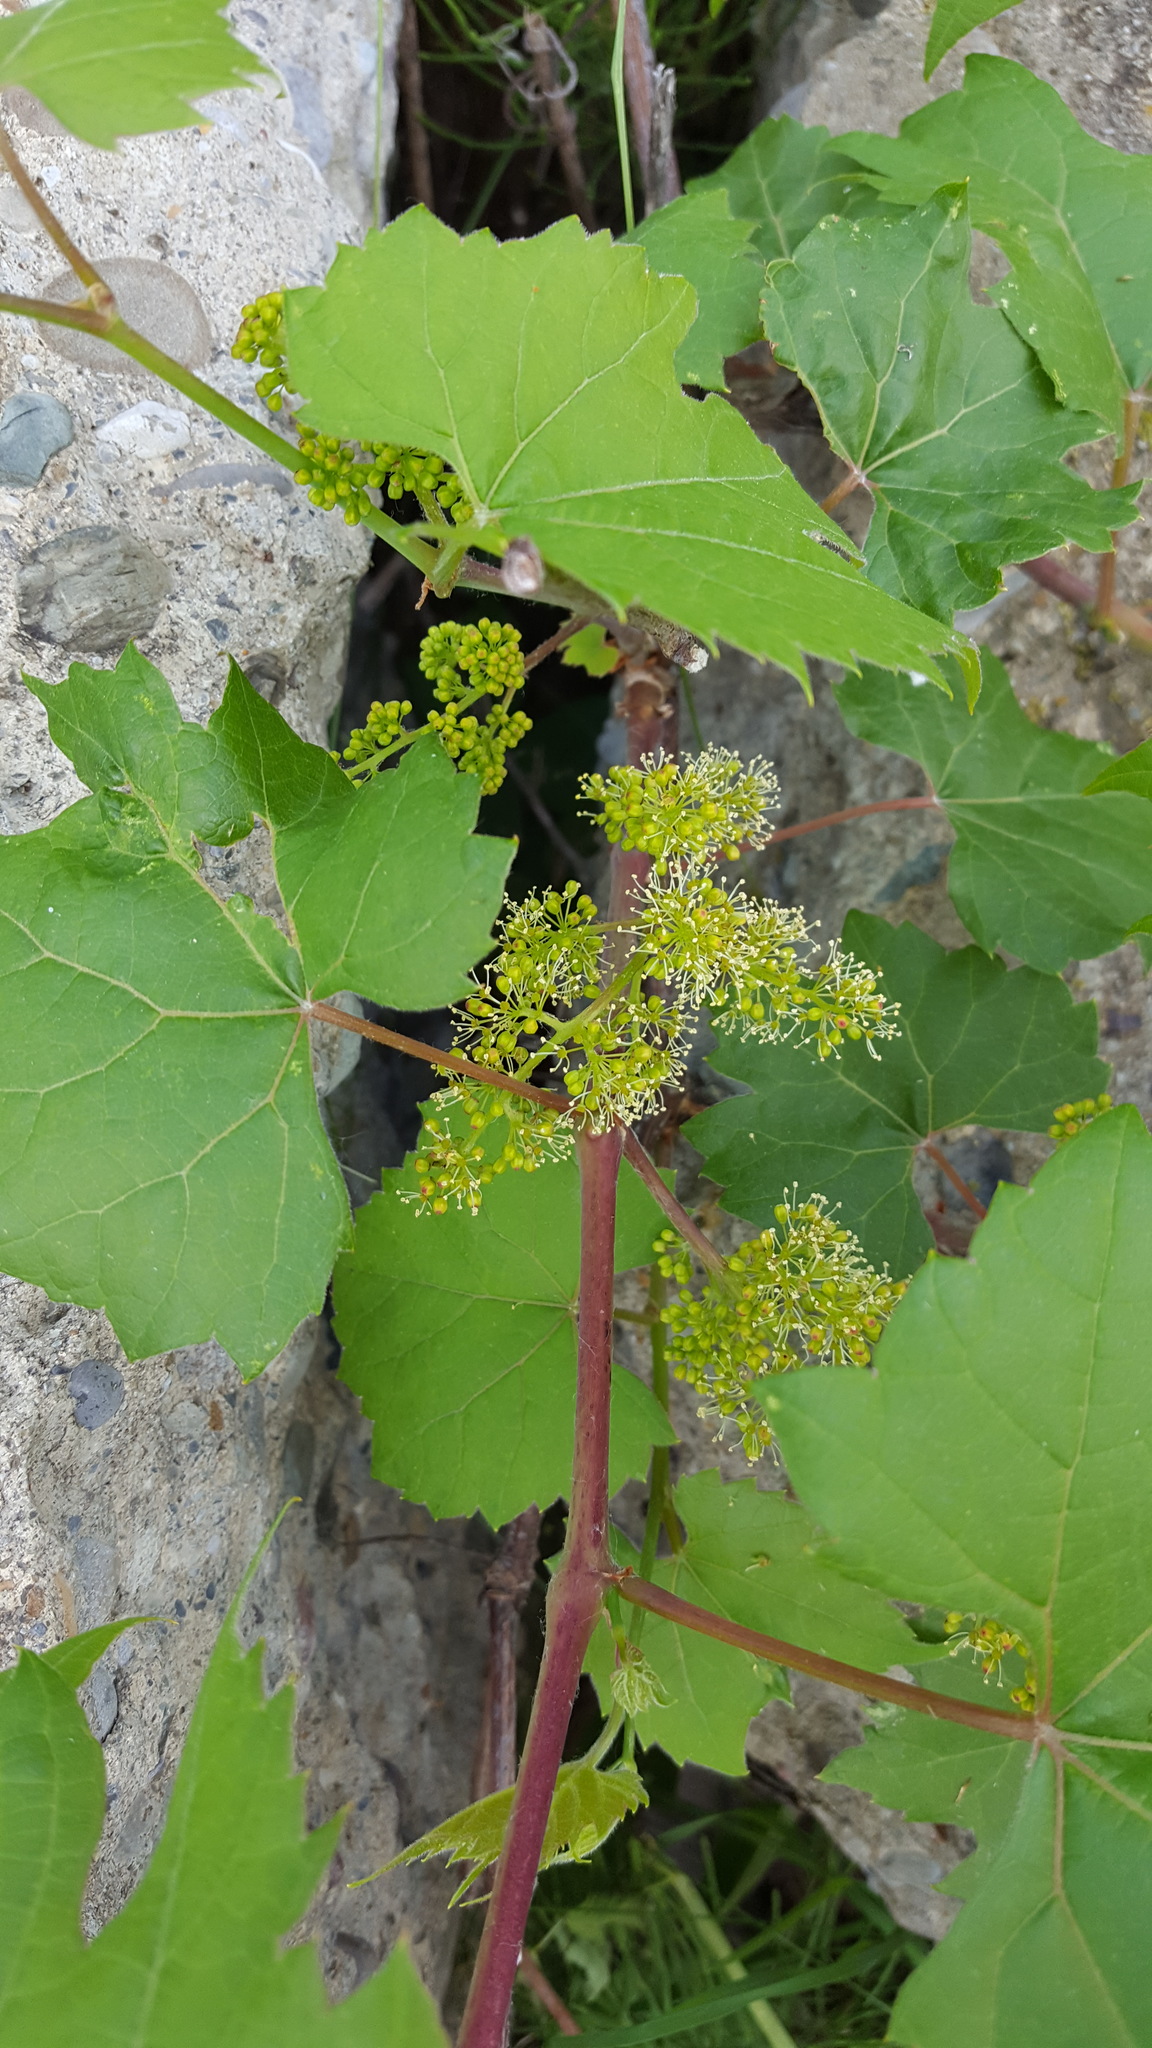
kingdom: Plantae
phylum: Tracheophyta
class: Magnoliopsida
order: Vitales
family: Vitaceae
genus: Vitis
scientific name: Vitis riparia
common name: Frost grape
